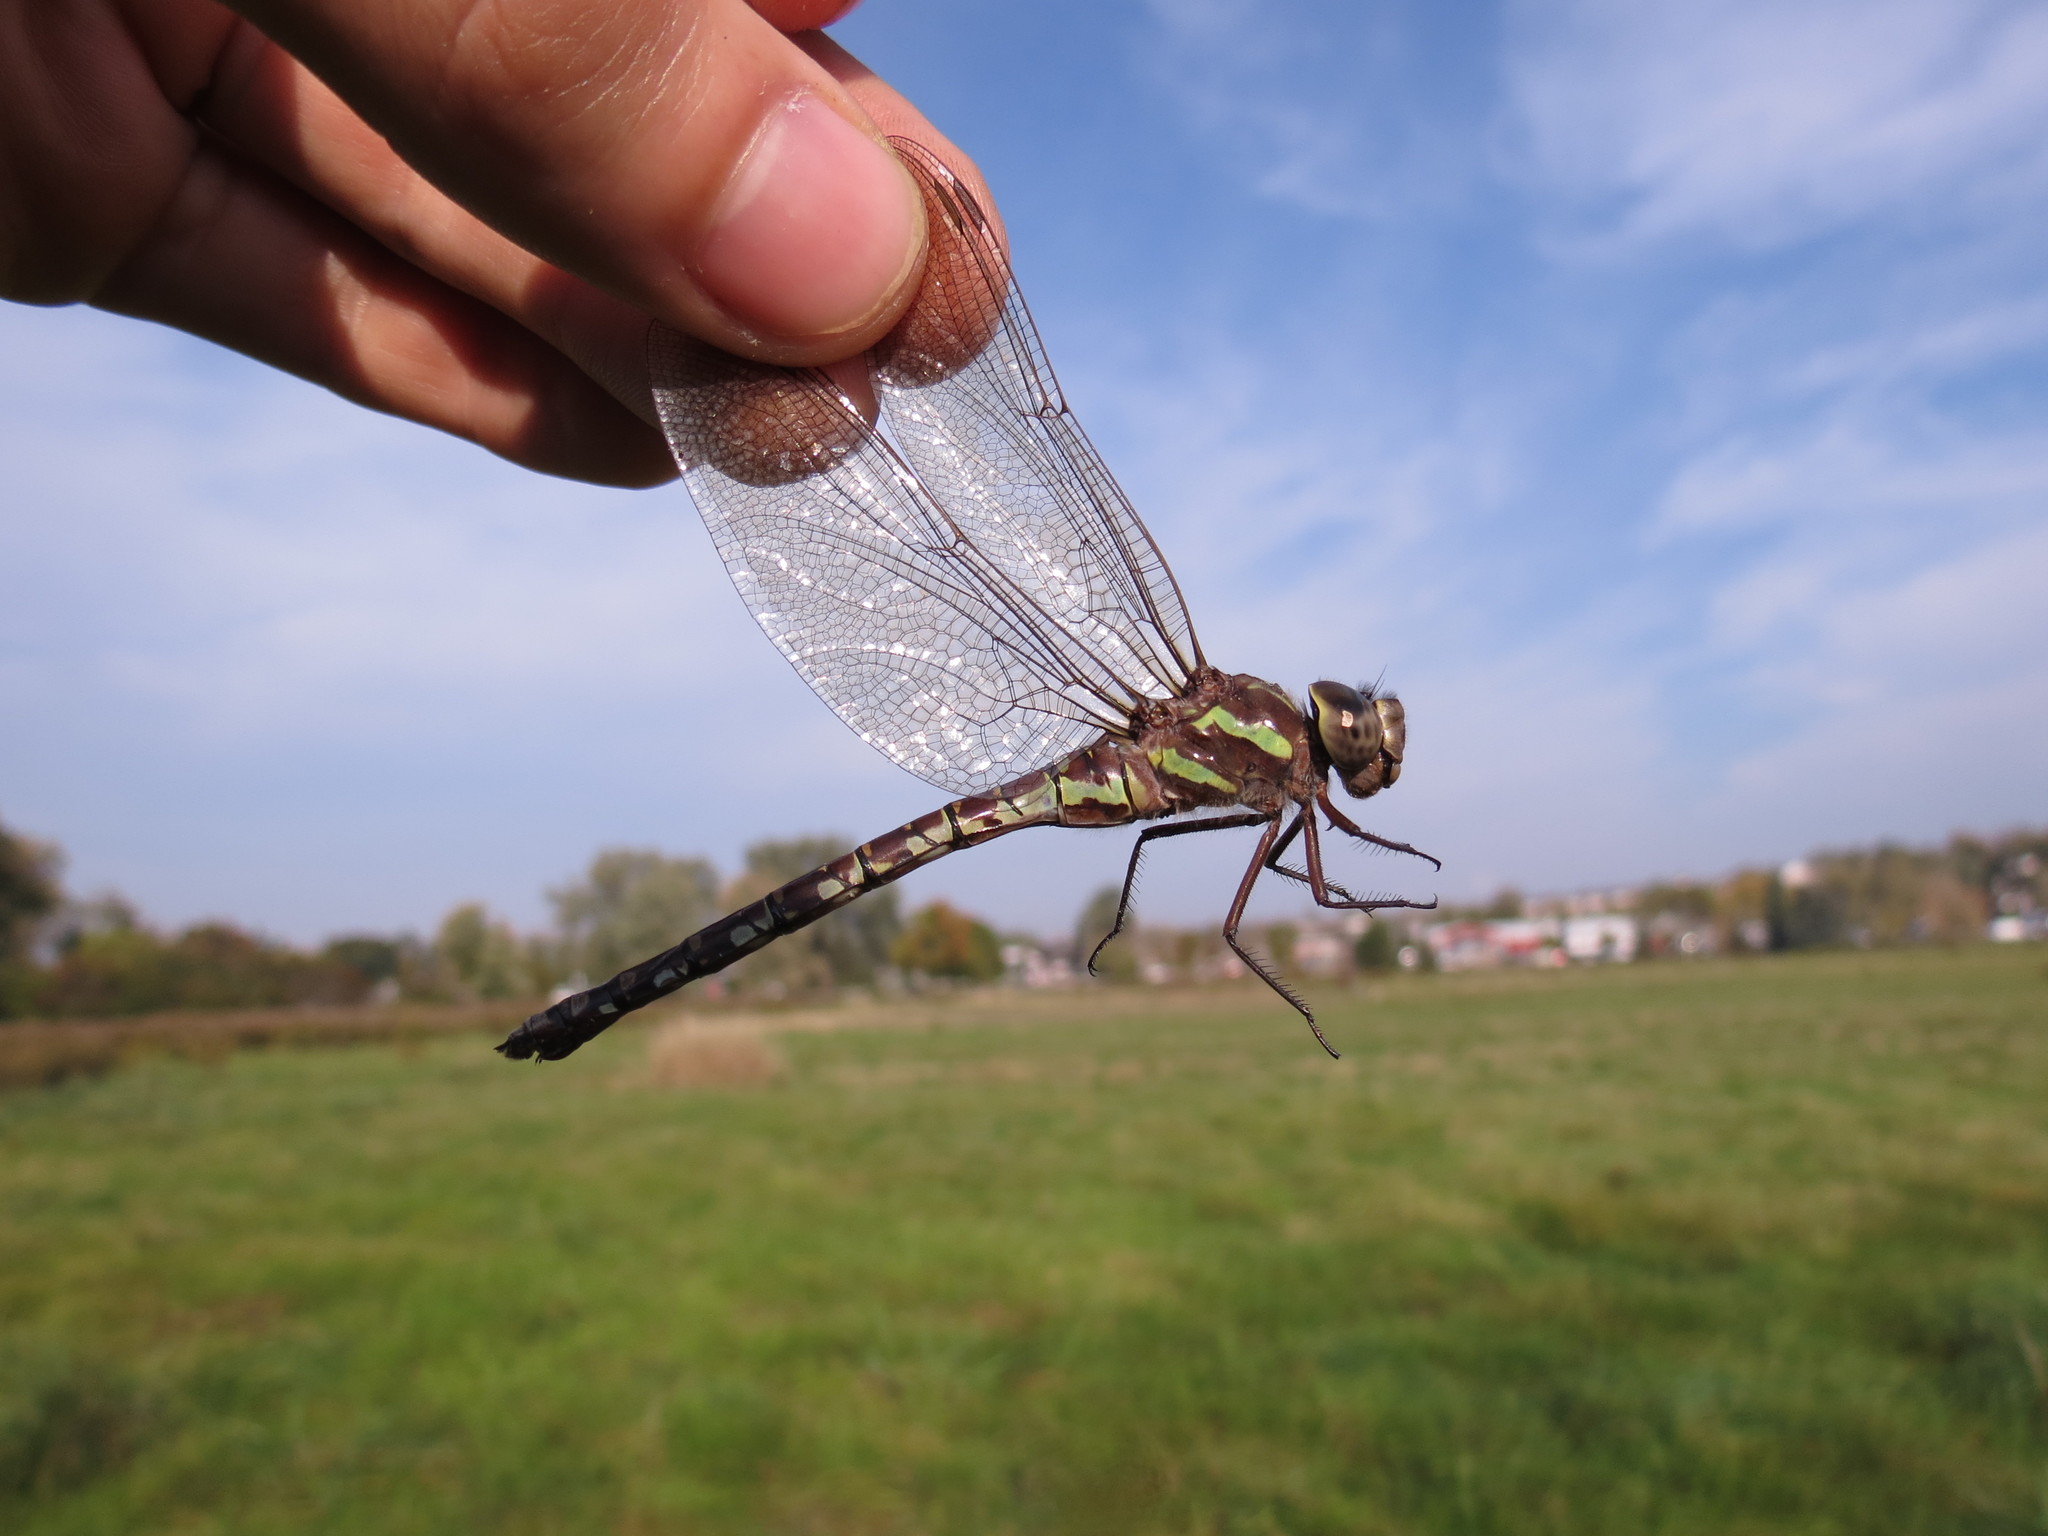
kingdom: Animalia
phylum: Arthropoda
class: Insecta
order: Odonata
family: Aeshnidae
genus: Aeshna
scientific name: Aeshna verticalis
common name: Green-striped darner
